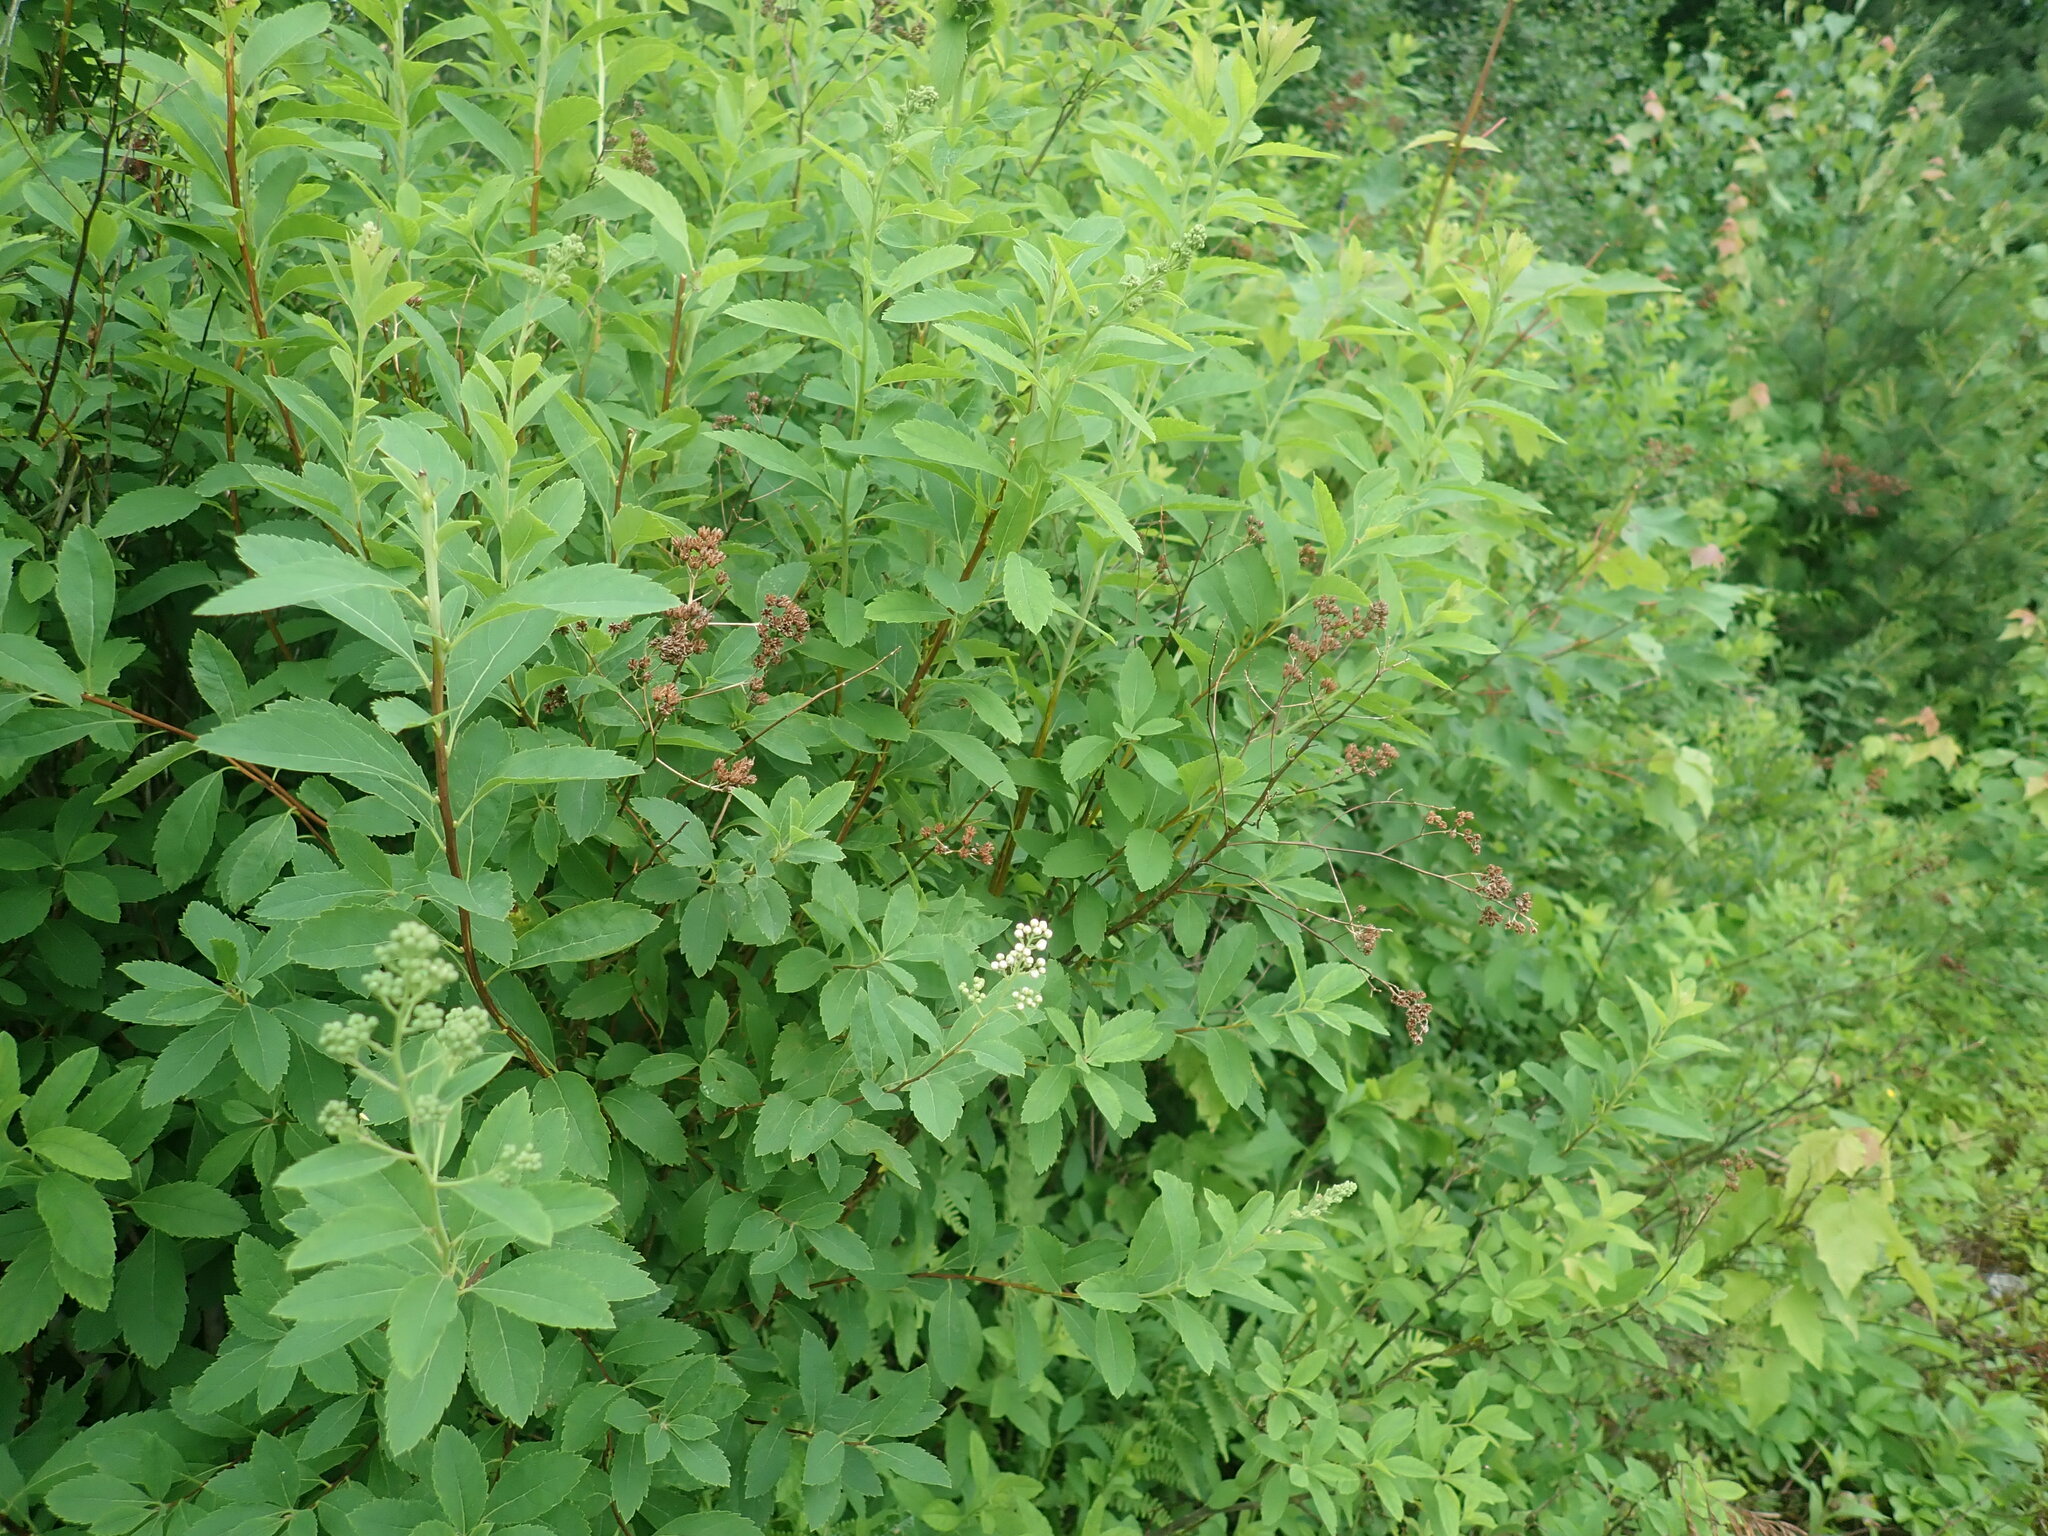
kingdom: Plantae
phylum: Tracheophyta
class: Magnoliopsida
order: Rosales
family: Rosaceae
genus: Spiraea
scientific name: Spiraea alba
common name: Pale bridewort
